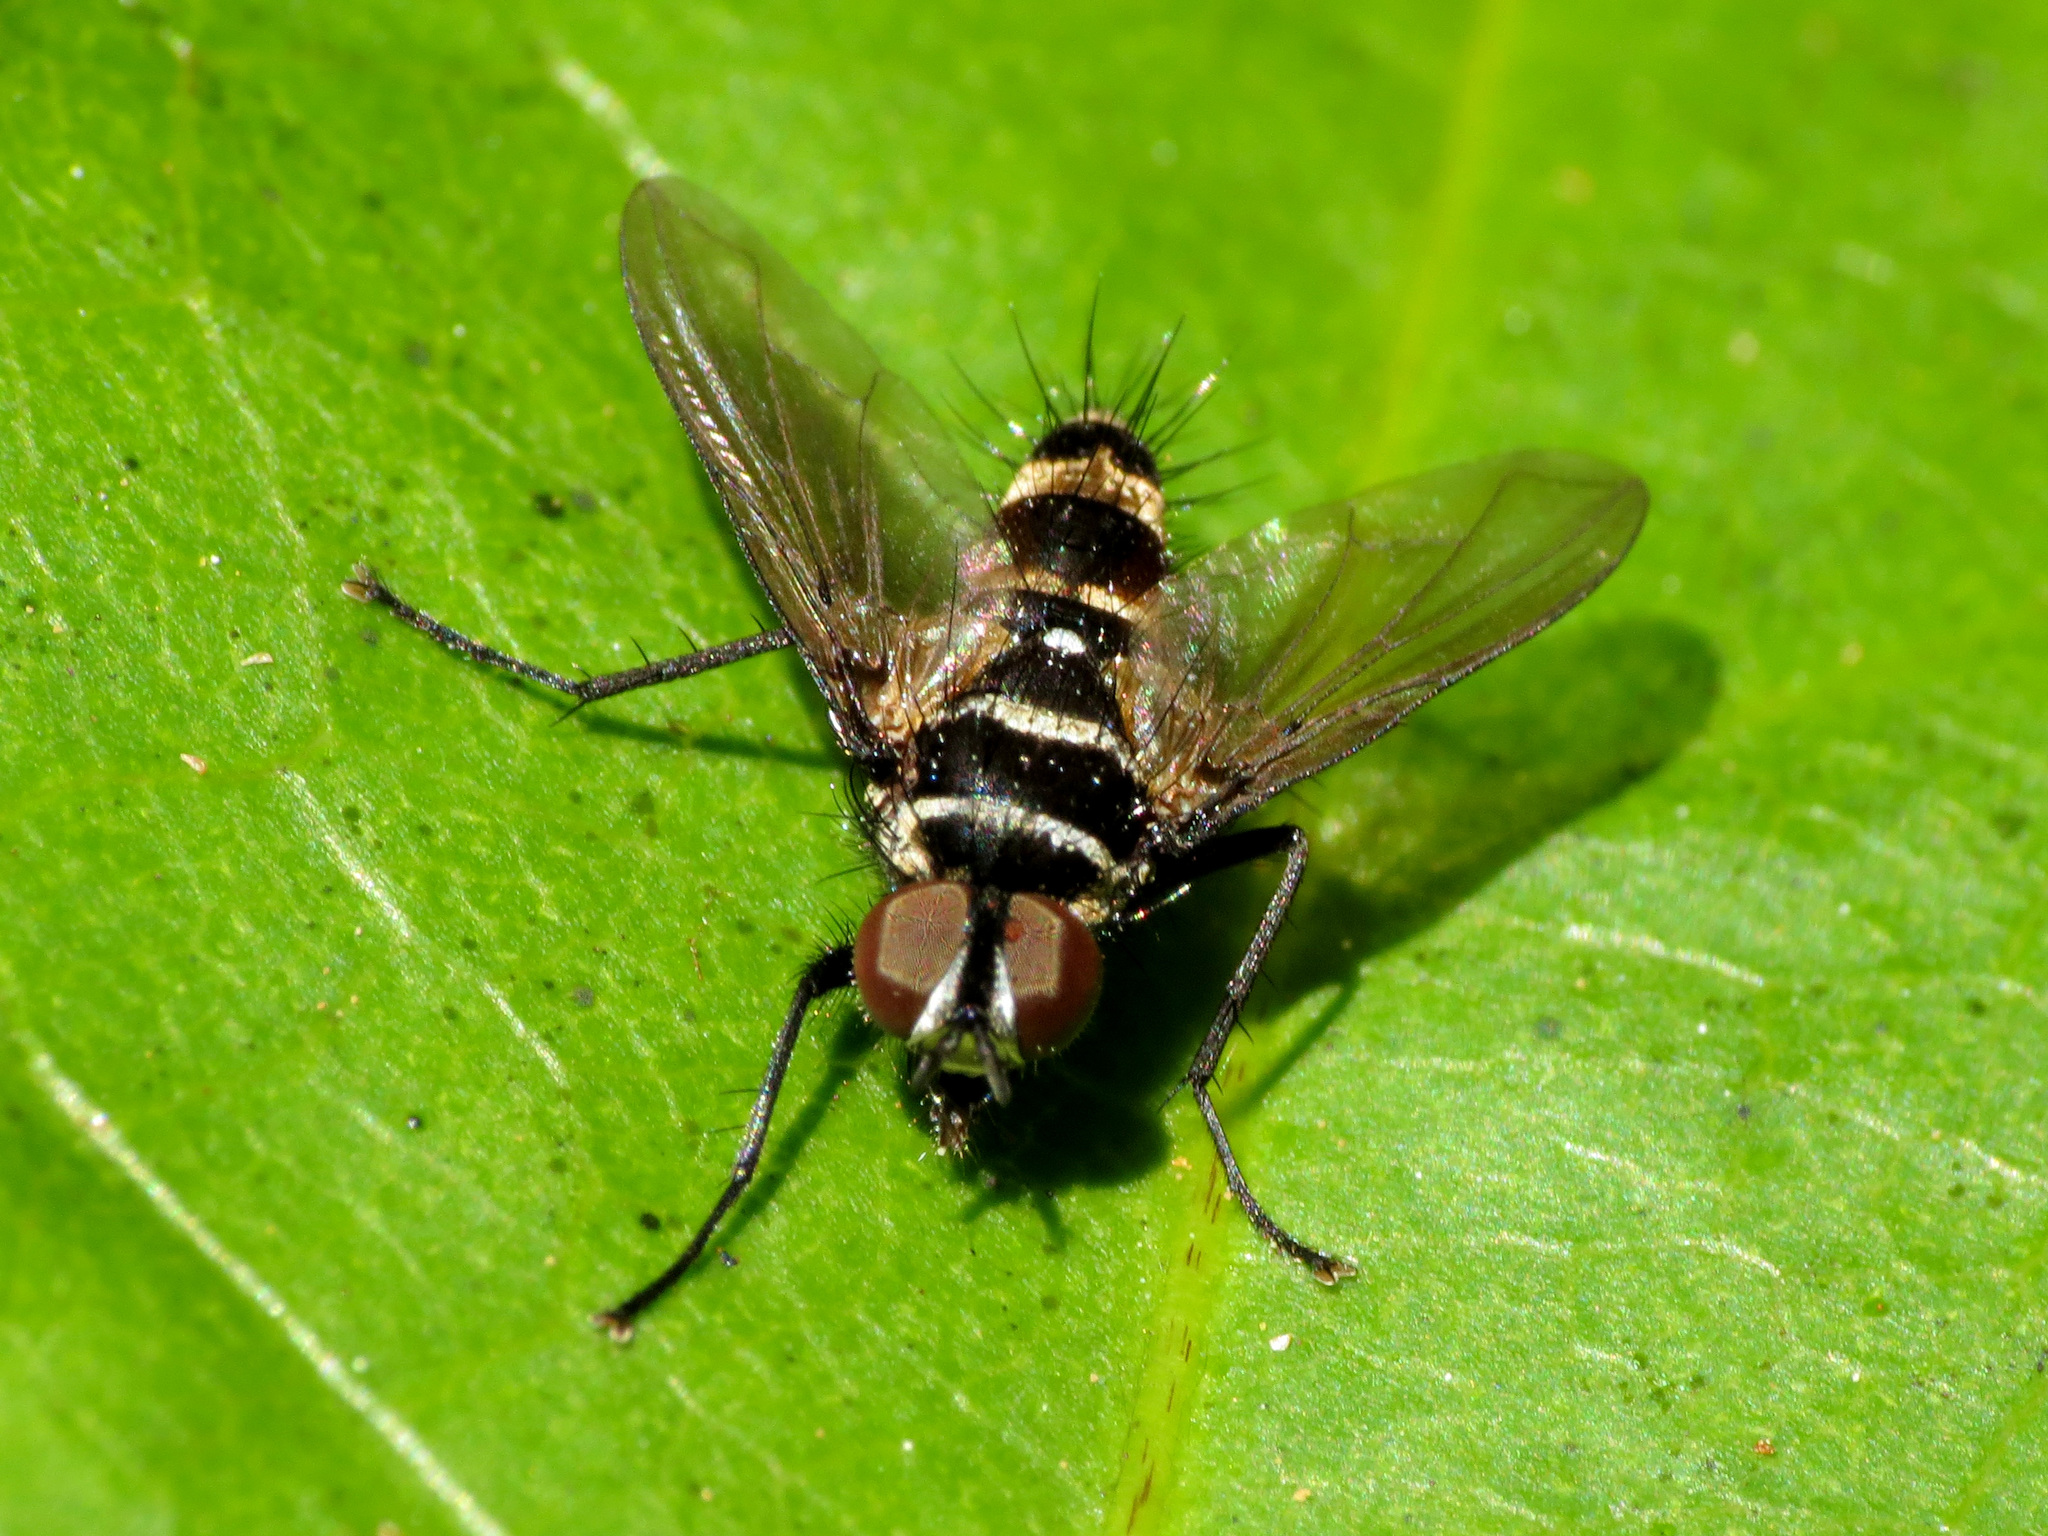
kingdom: Animalia
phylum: Arthropoda
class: Insecta
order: Diptera
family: Tachinidae
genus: Trigonospila
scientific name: Trigonospila brevifacies
